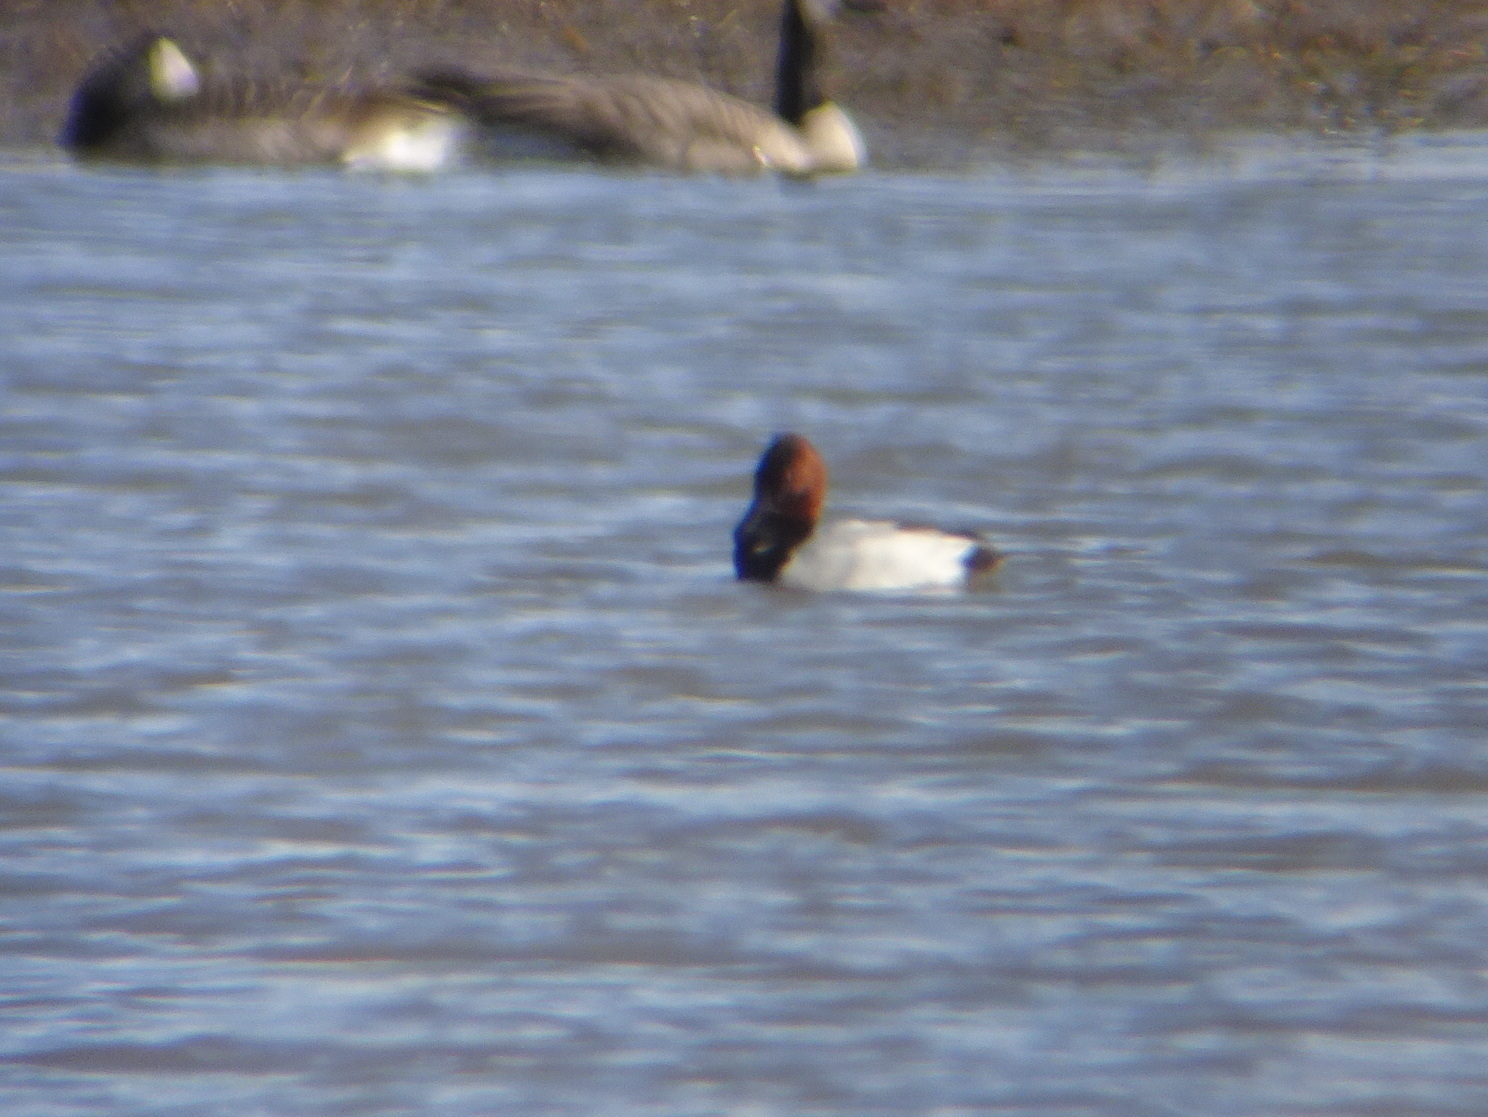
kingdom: Animalia
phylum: Chordata
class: Aves
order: Anseriformes
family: Anatidae
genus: Aythya
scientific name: Aythya valisineria
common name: Canvasback
